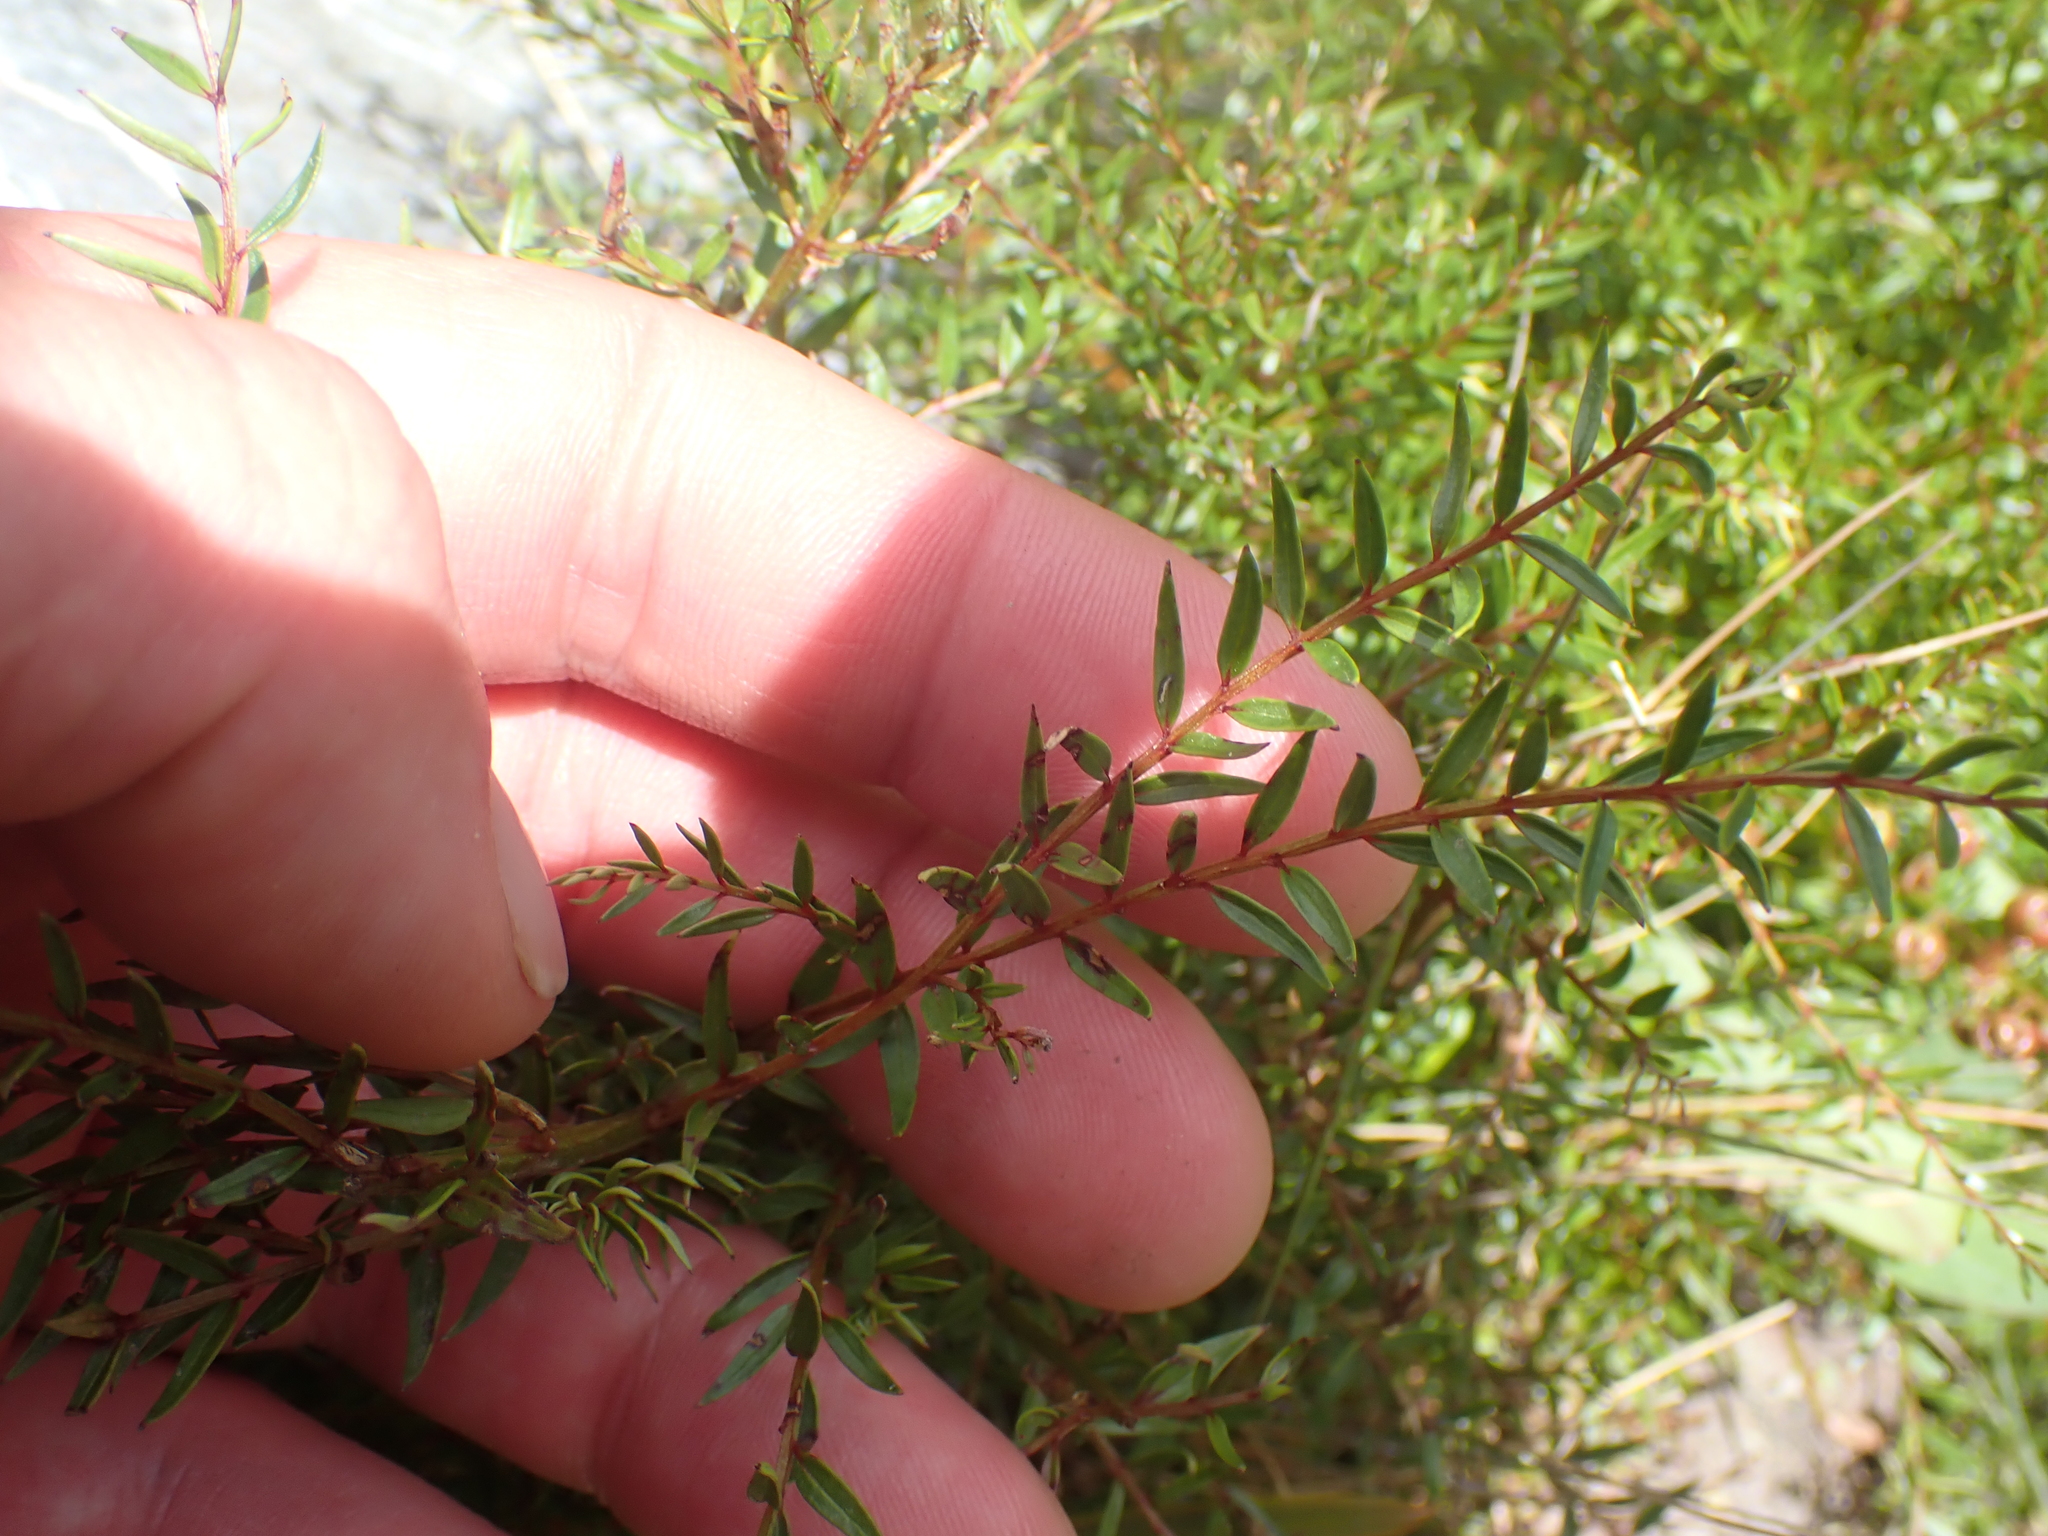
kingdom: Plantae
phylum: Tracheophyta
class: Magnoliopsida
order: Cucurbitales
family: Coriariaceae
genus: Coriaria
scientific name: Coriaria angustissima
